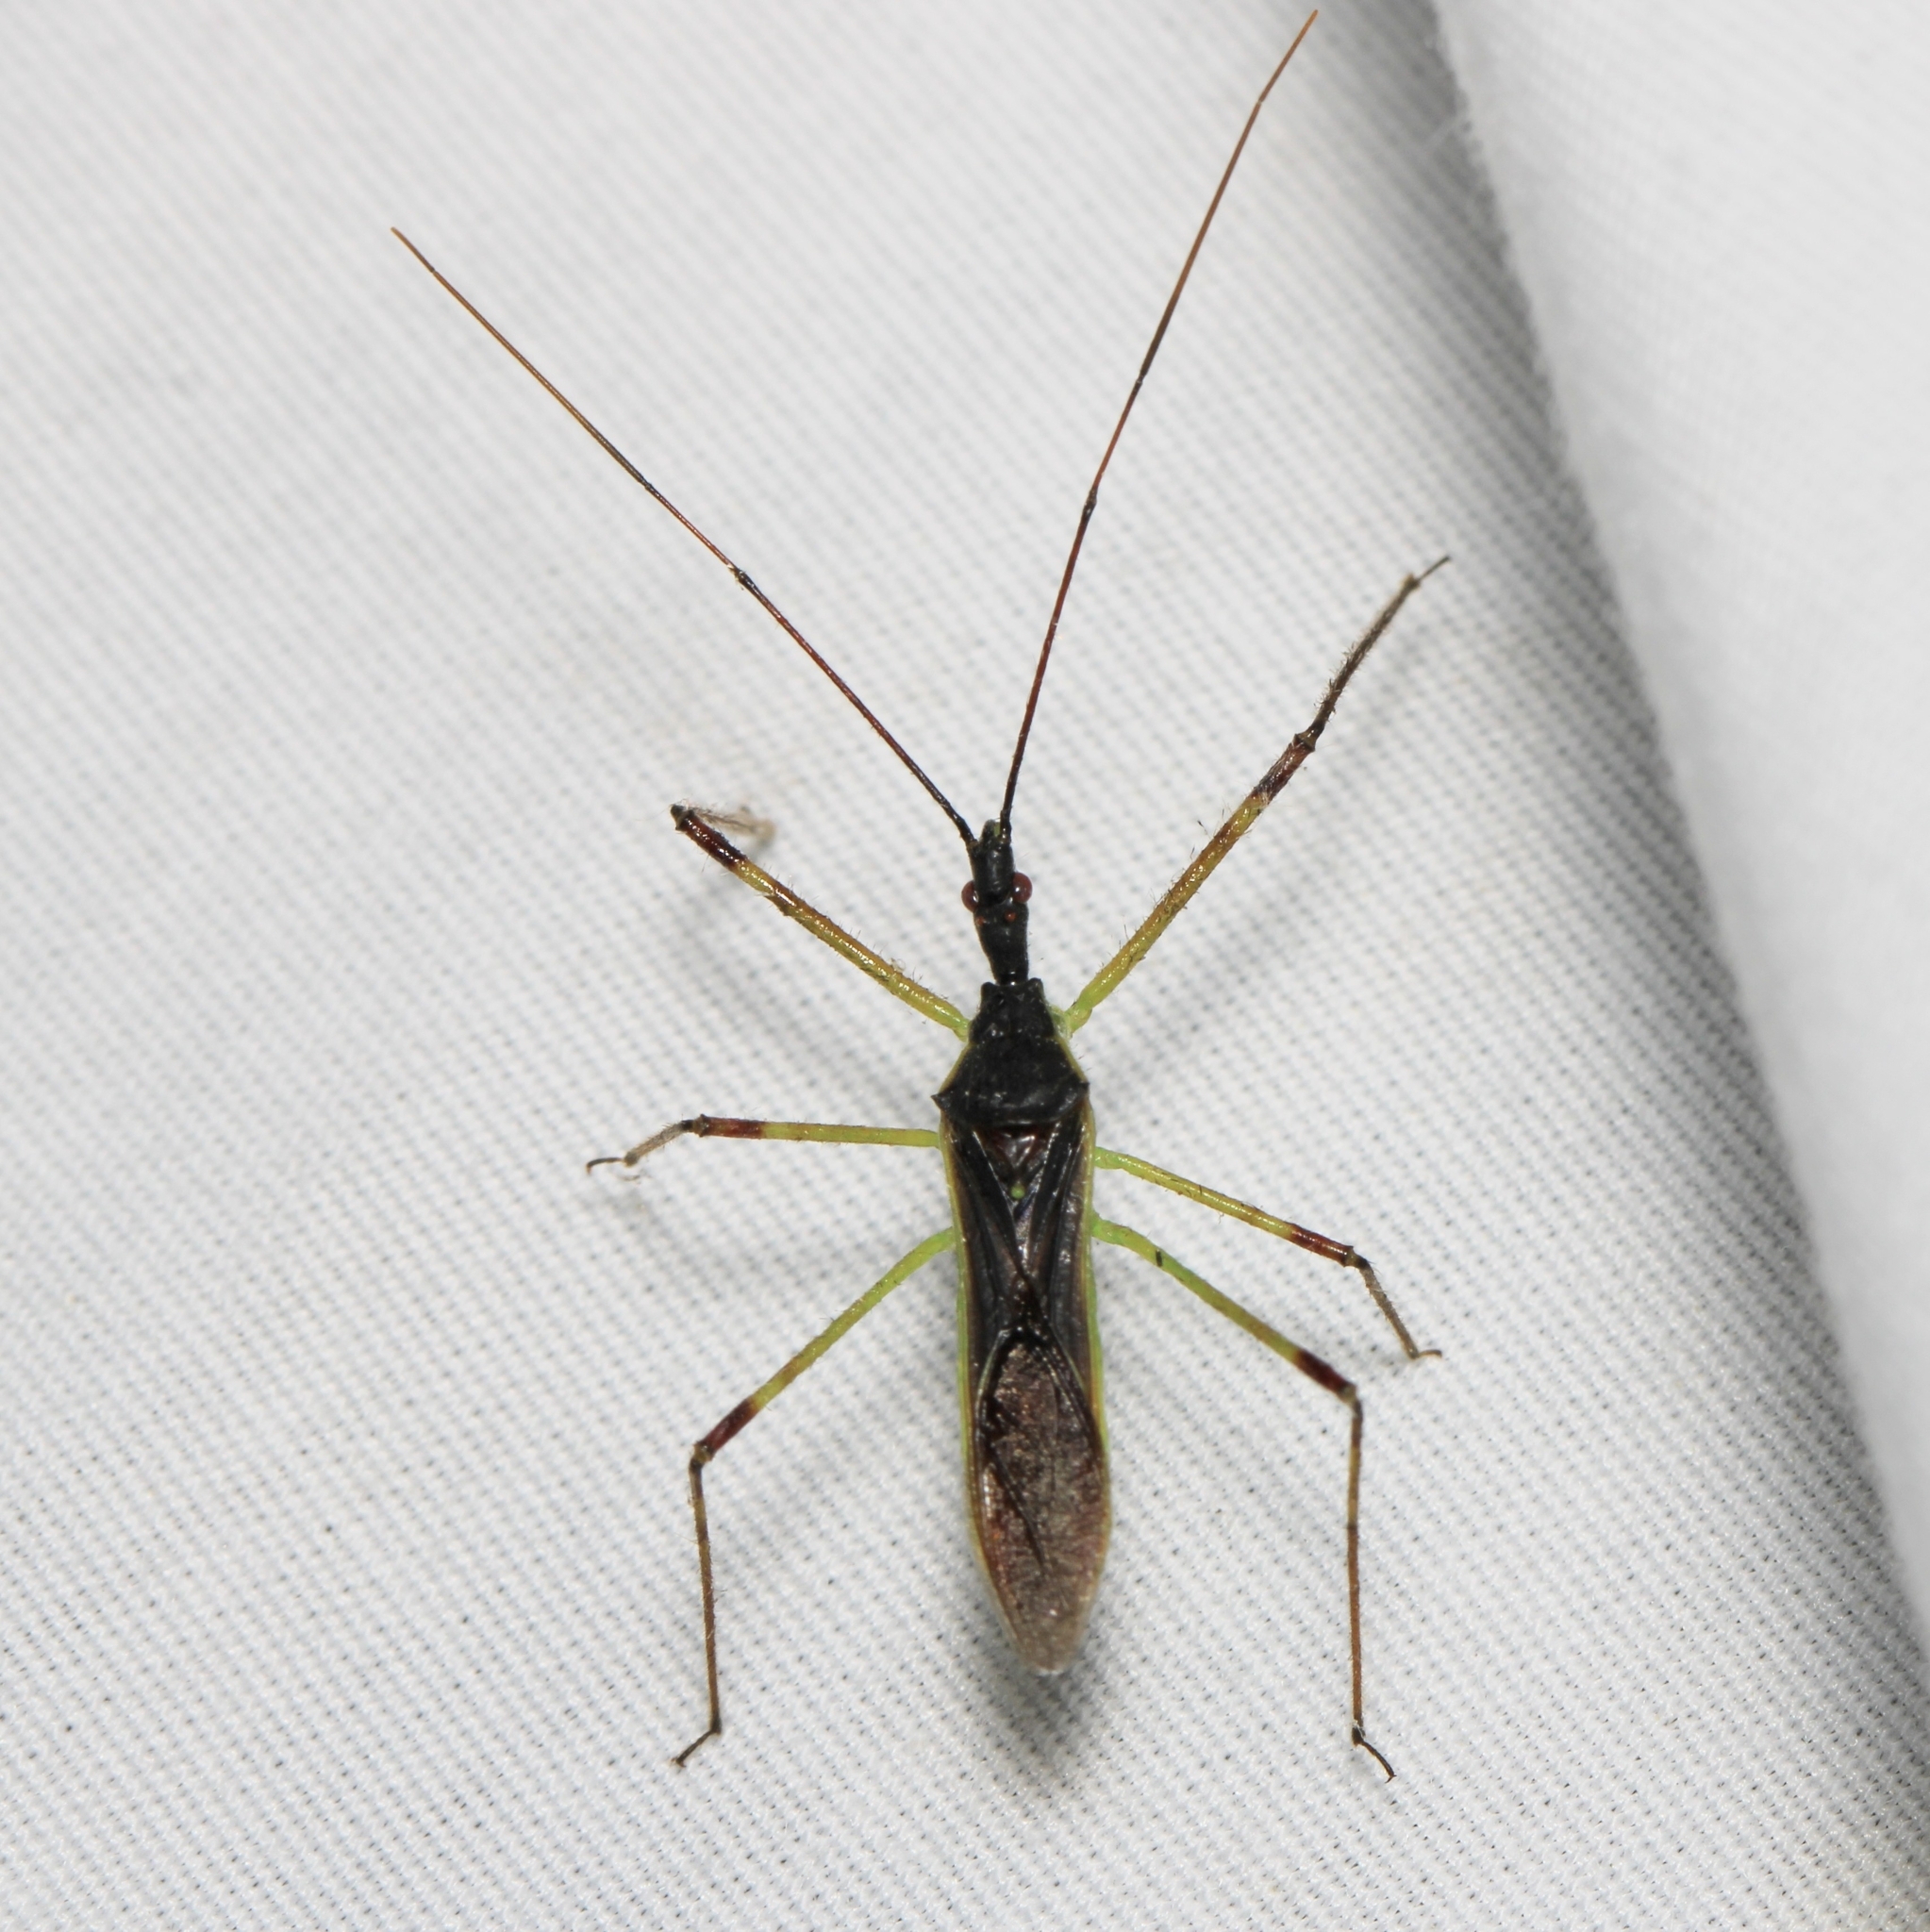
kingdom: Animalia
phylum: Arthropoda
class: Insecta
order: Hemiptera
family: Reduviidae
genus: Zelus
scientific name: Zelus luridus
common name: Pale green assassin bug
